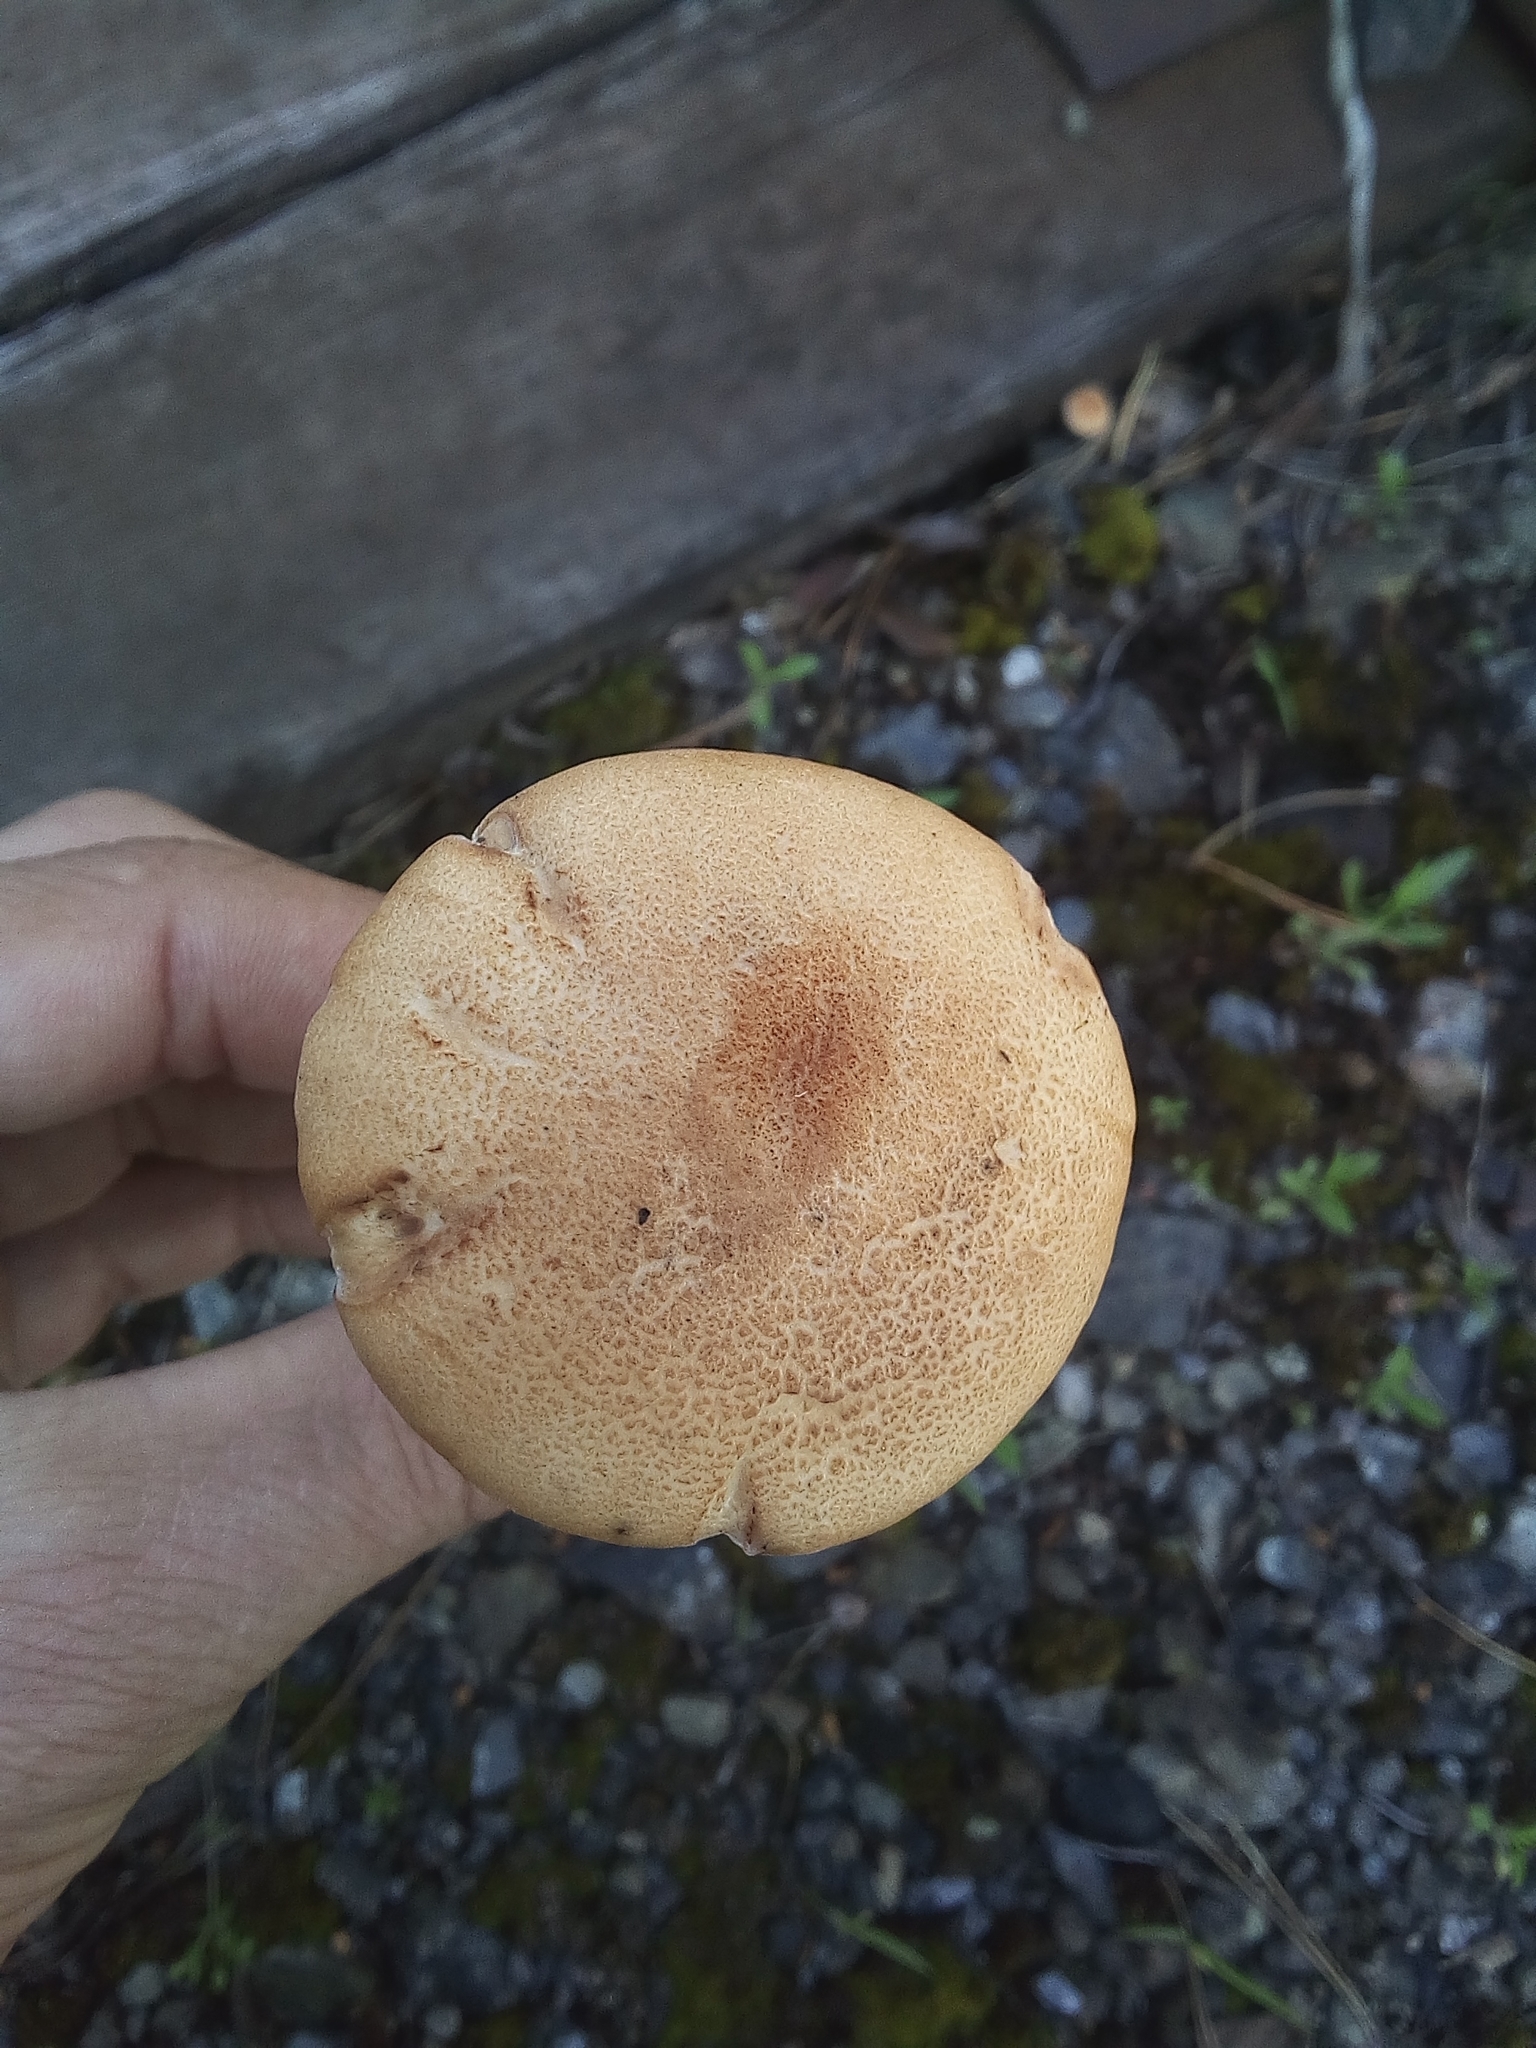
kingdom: Fungi
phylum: Basidiomycota
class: Agaricomycetes
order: Gloeophyllales
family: Gloeophyllaceae
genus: Neolentinus
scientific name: Neolentinus cyathiformis
